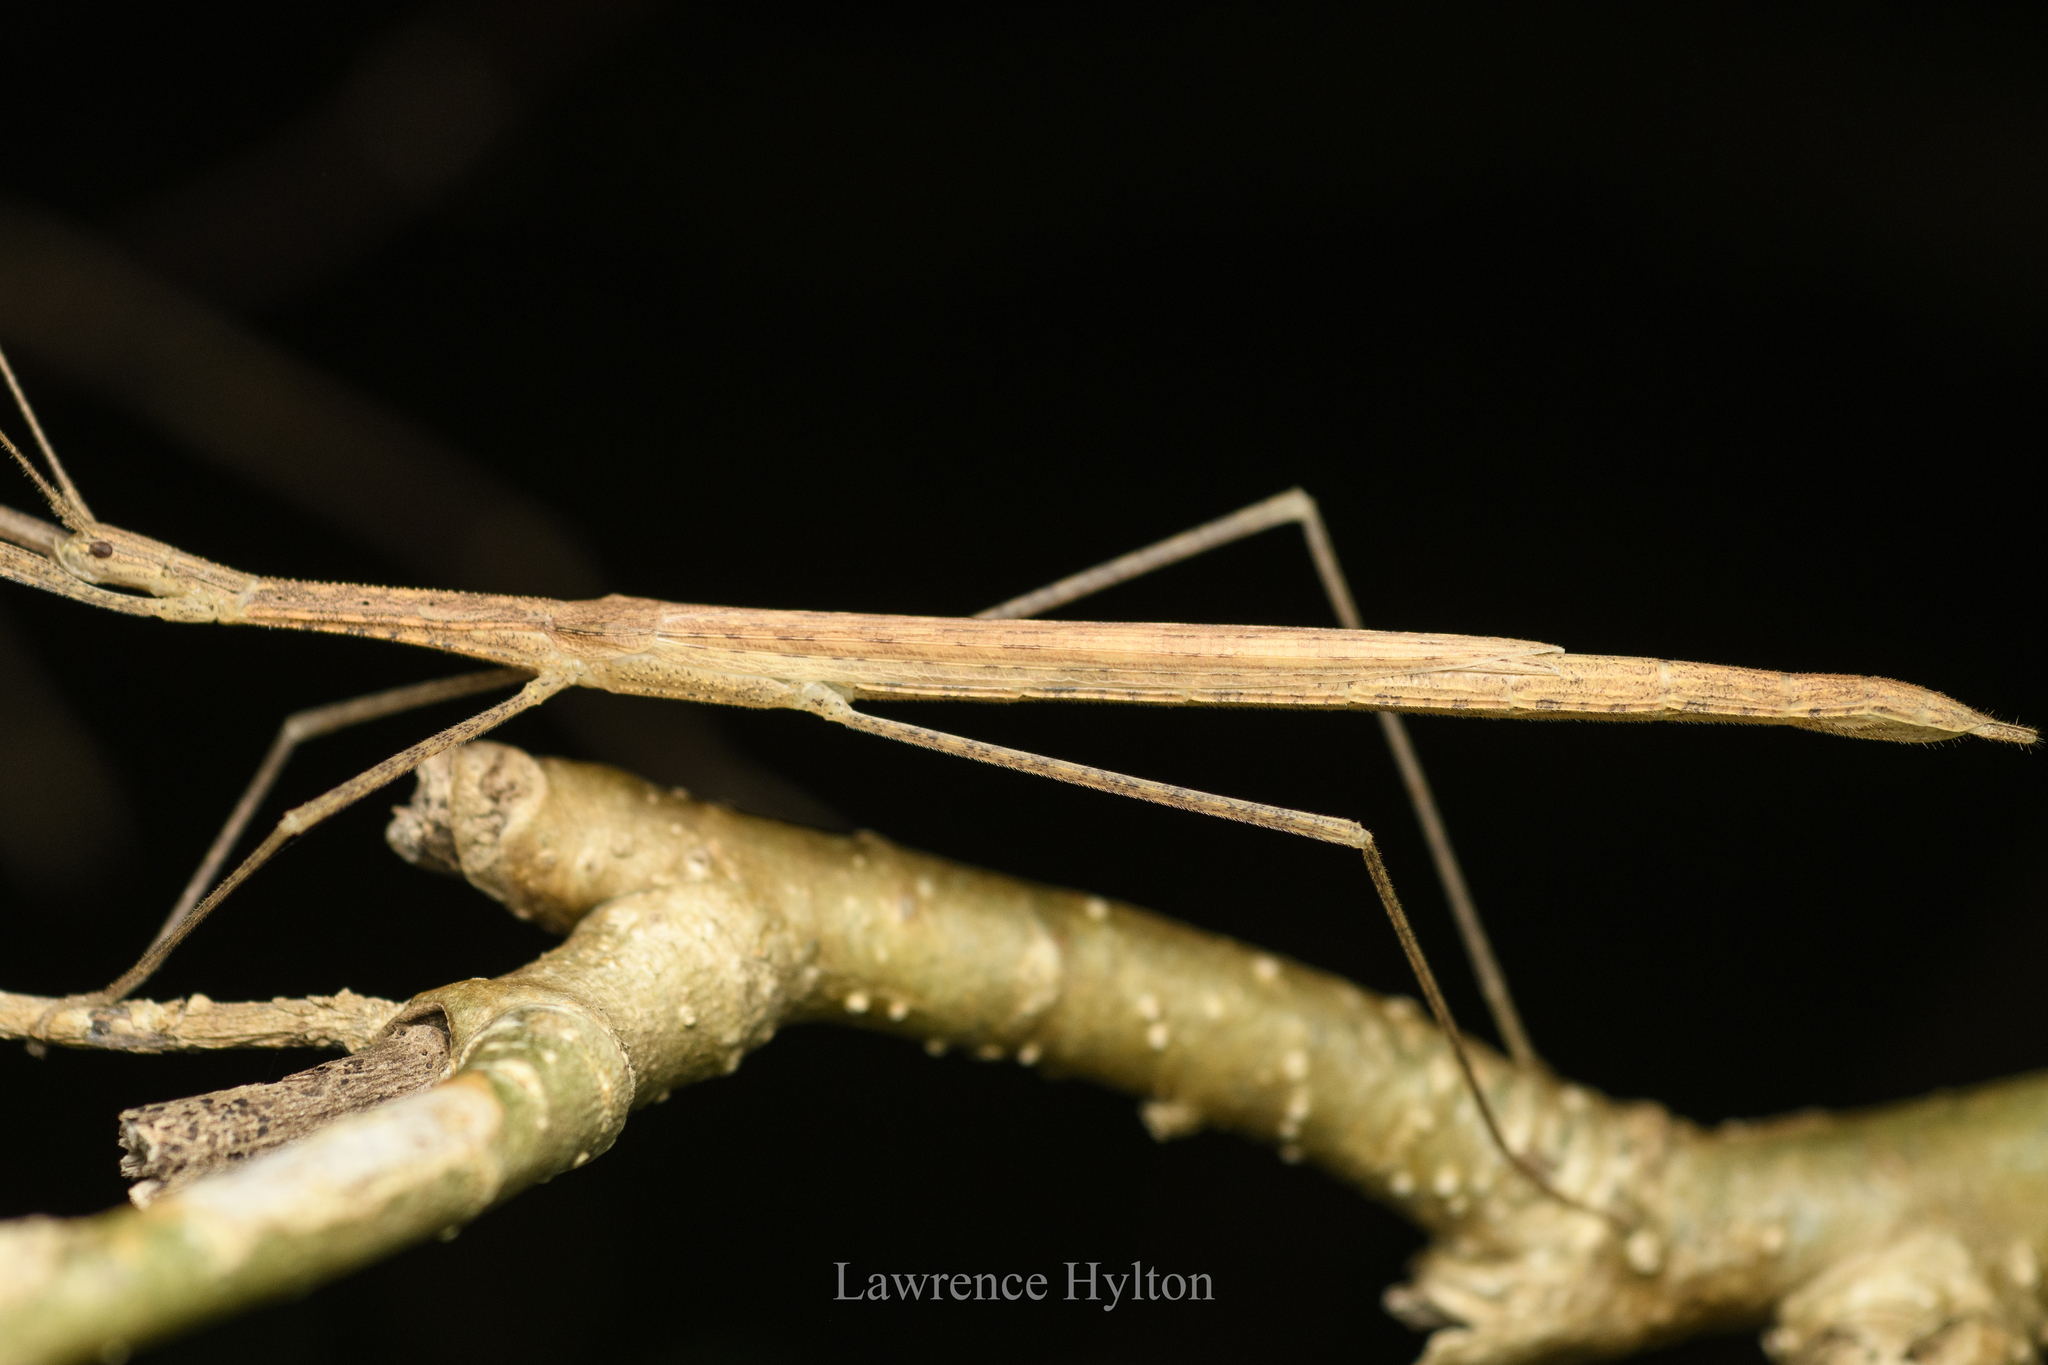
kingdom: Animalia
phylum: Arthropoda
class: Insecta
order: Phasmida
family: Lonchodidae
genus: Sipyloidea
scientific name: Sipyloidea sipylus
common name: Madagascan stick insect
